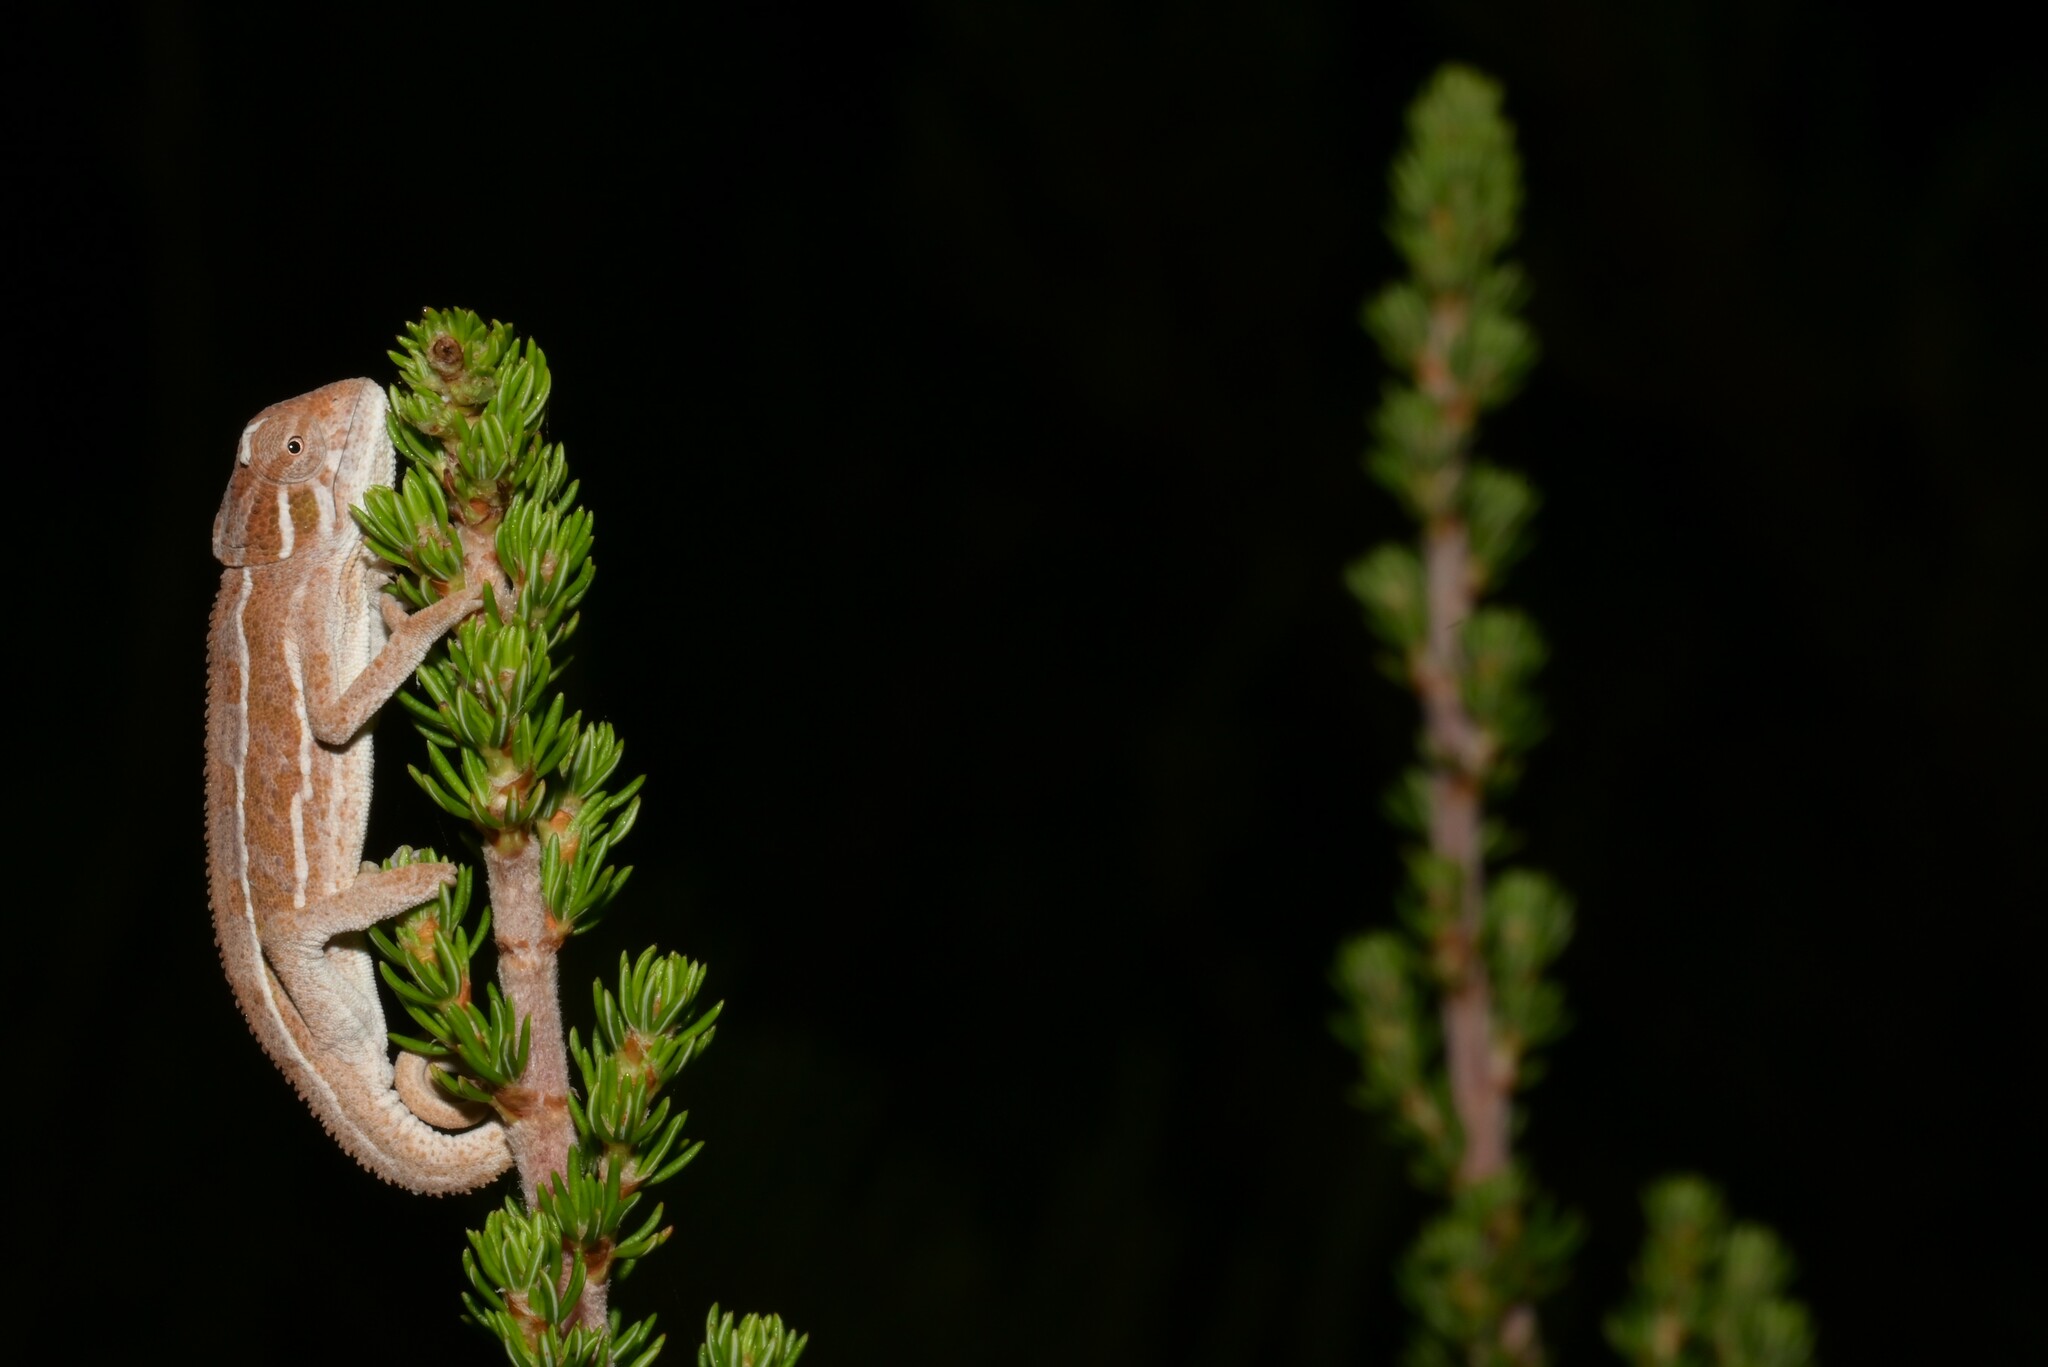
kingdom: Animalia
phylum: Chordata
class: Squamata
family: Chamaeleonidae
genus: Trioceros
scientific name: Trioceros goetzei
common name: Ilolo chameleon
